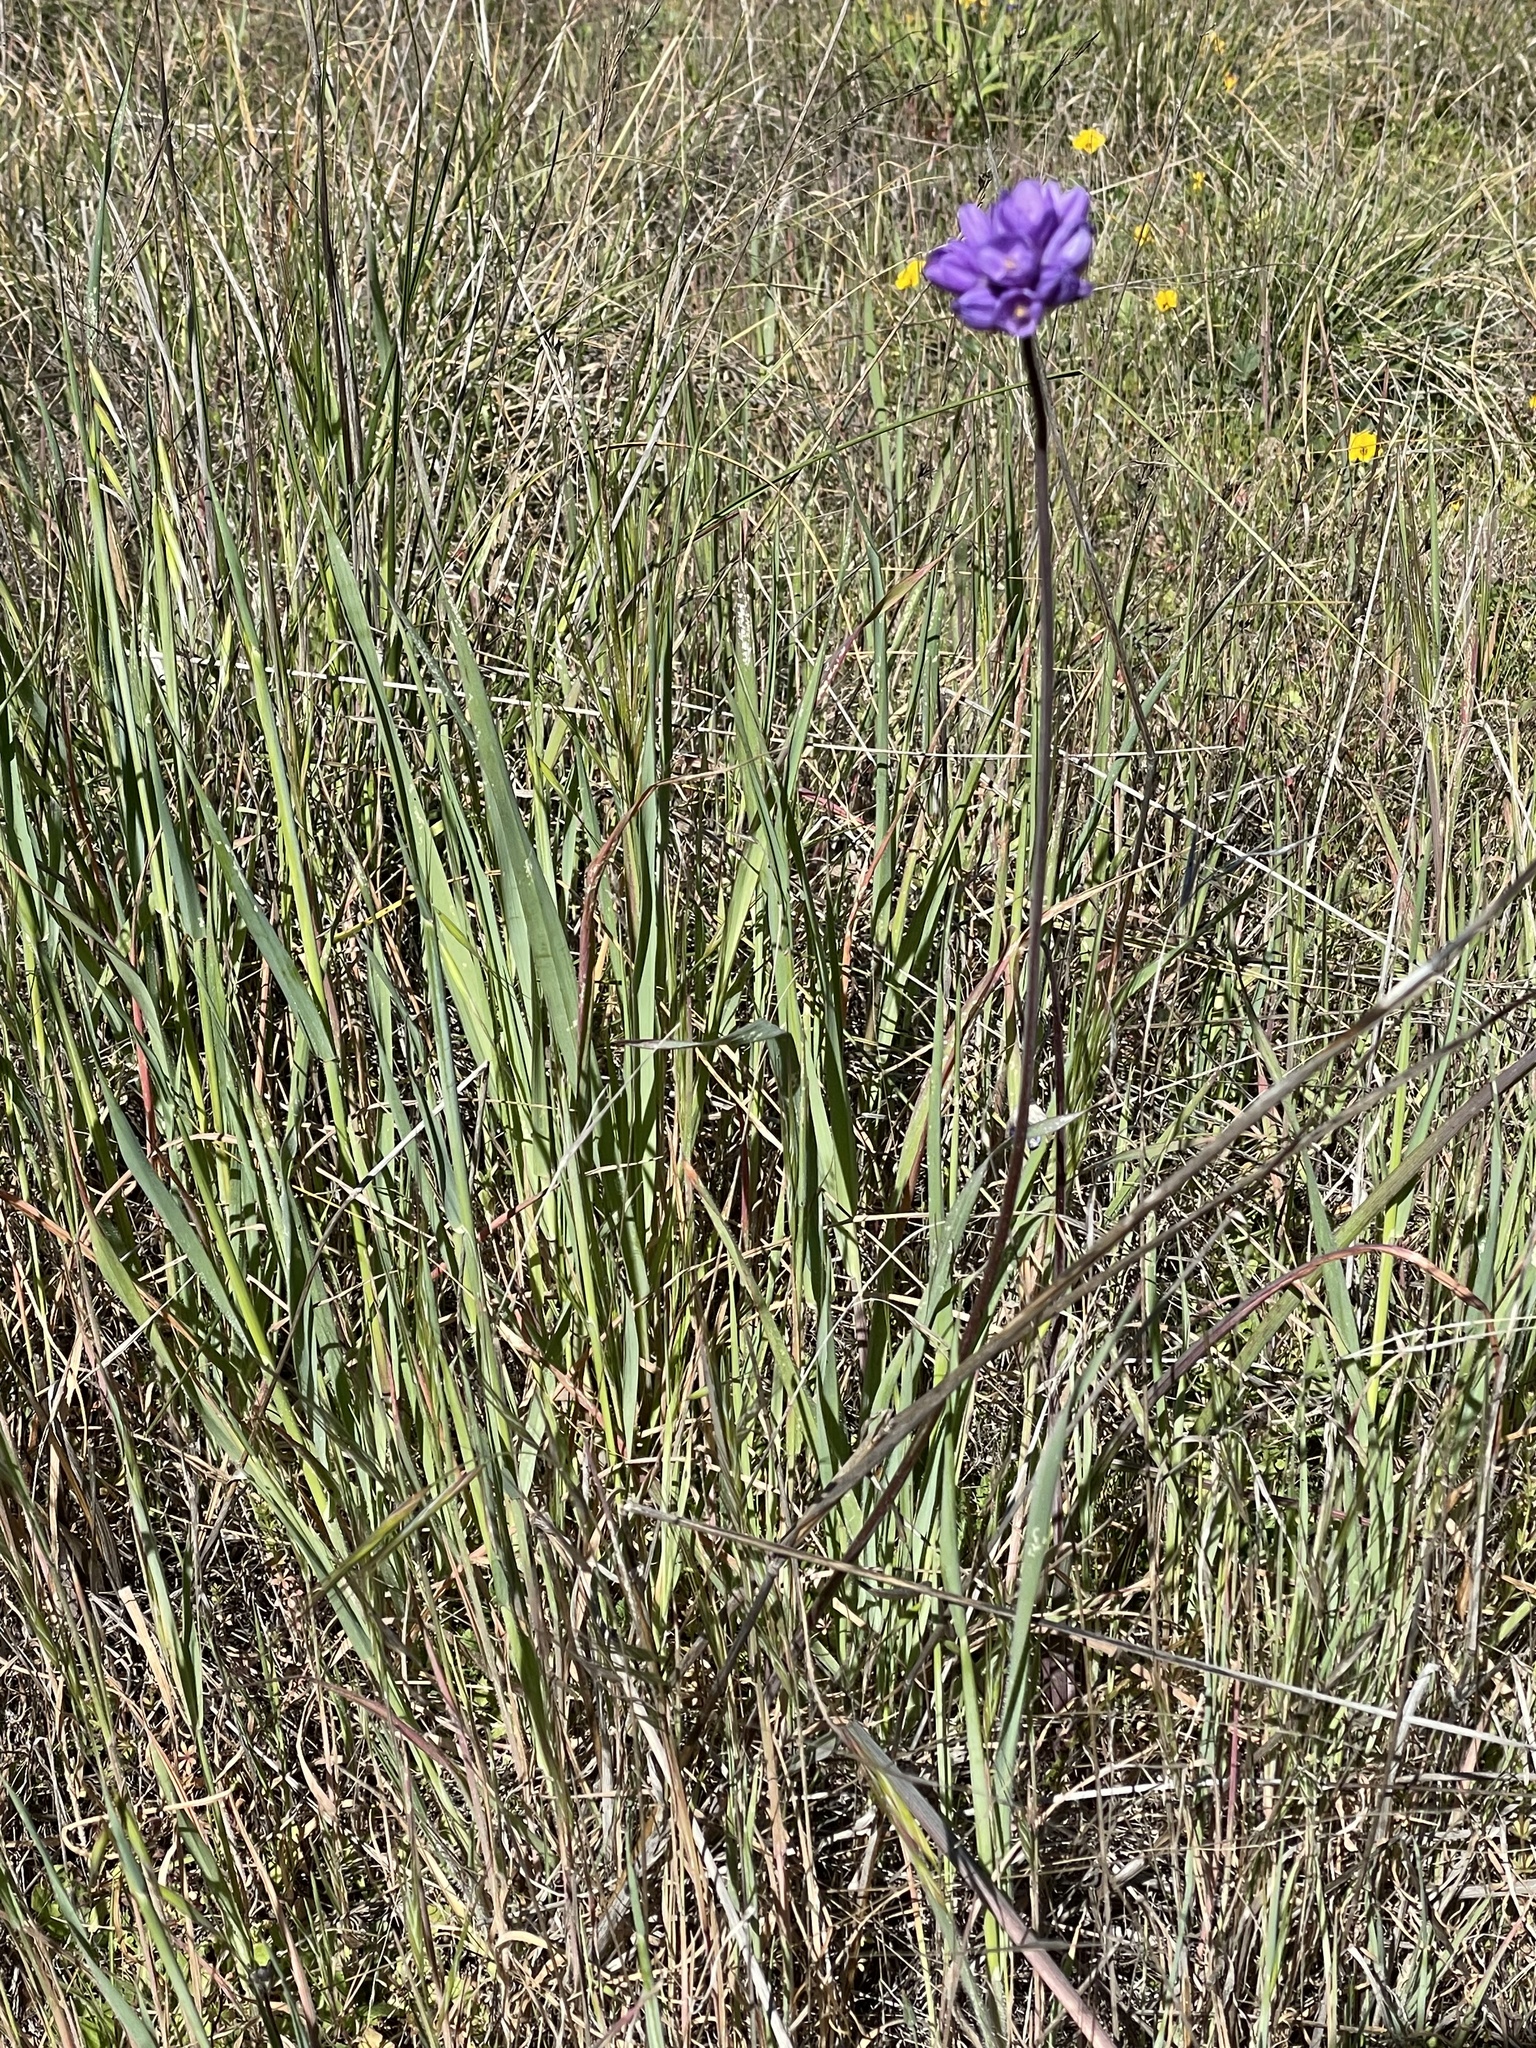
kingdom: Plantae
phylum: Tracheophyta
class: Liliopsida
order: Asparagales
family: Asparagaceae
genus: Dipterostemon
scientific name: Dipterostemon capitatus
